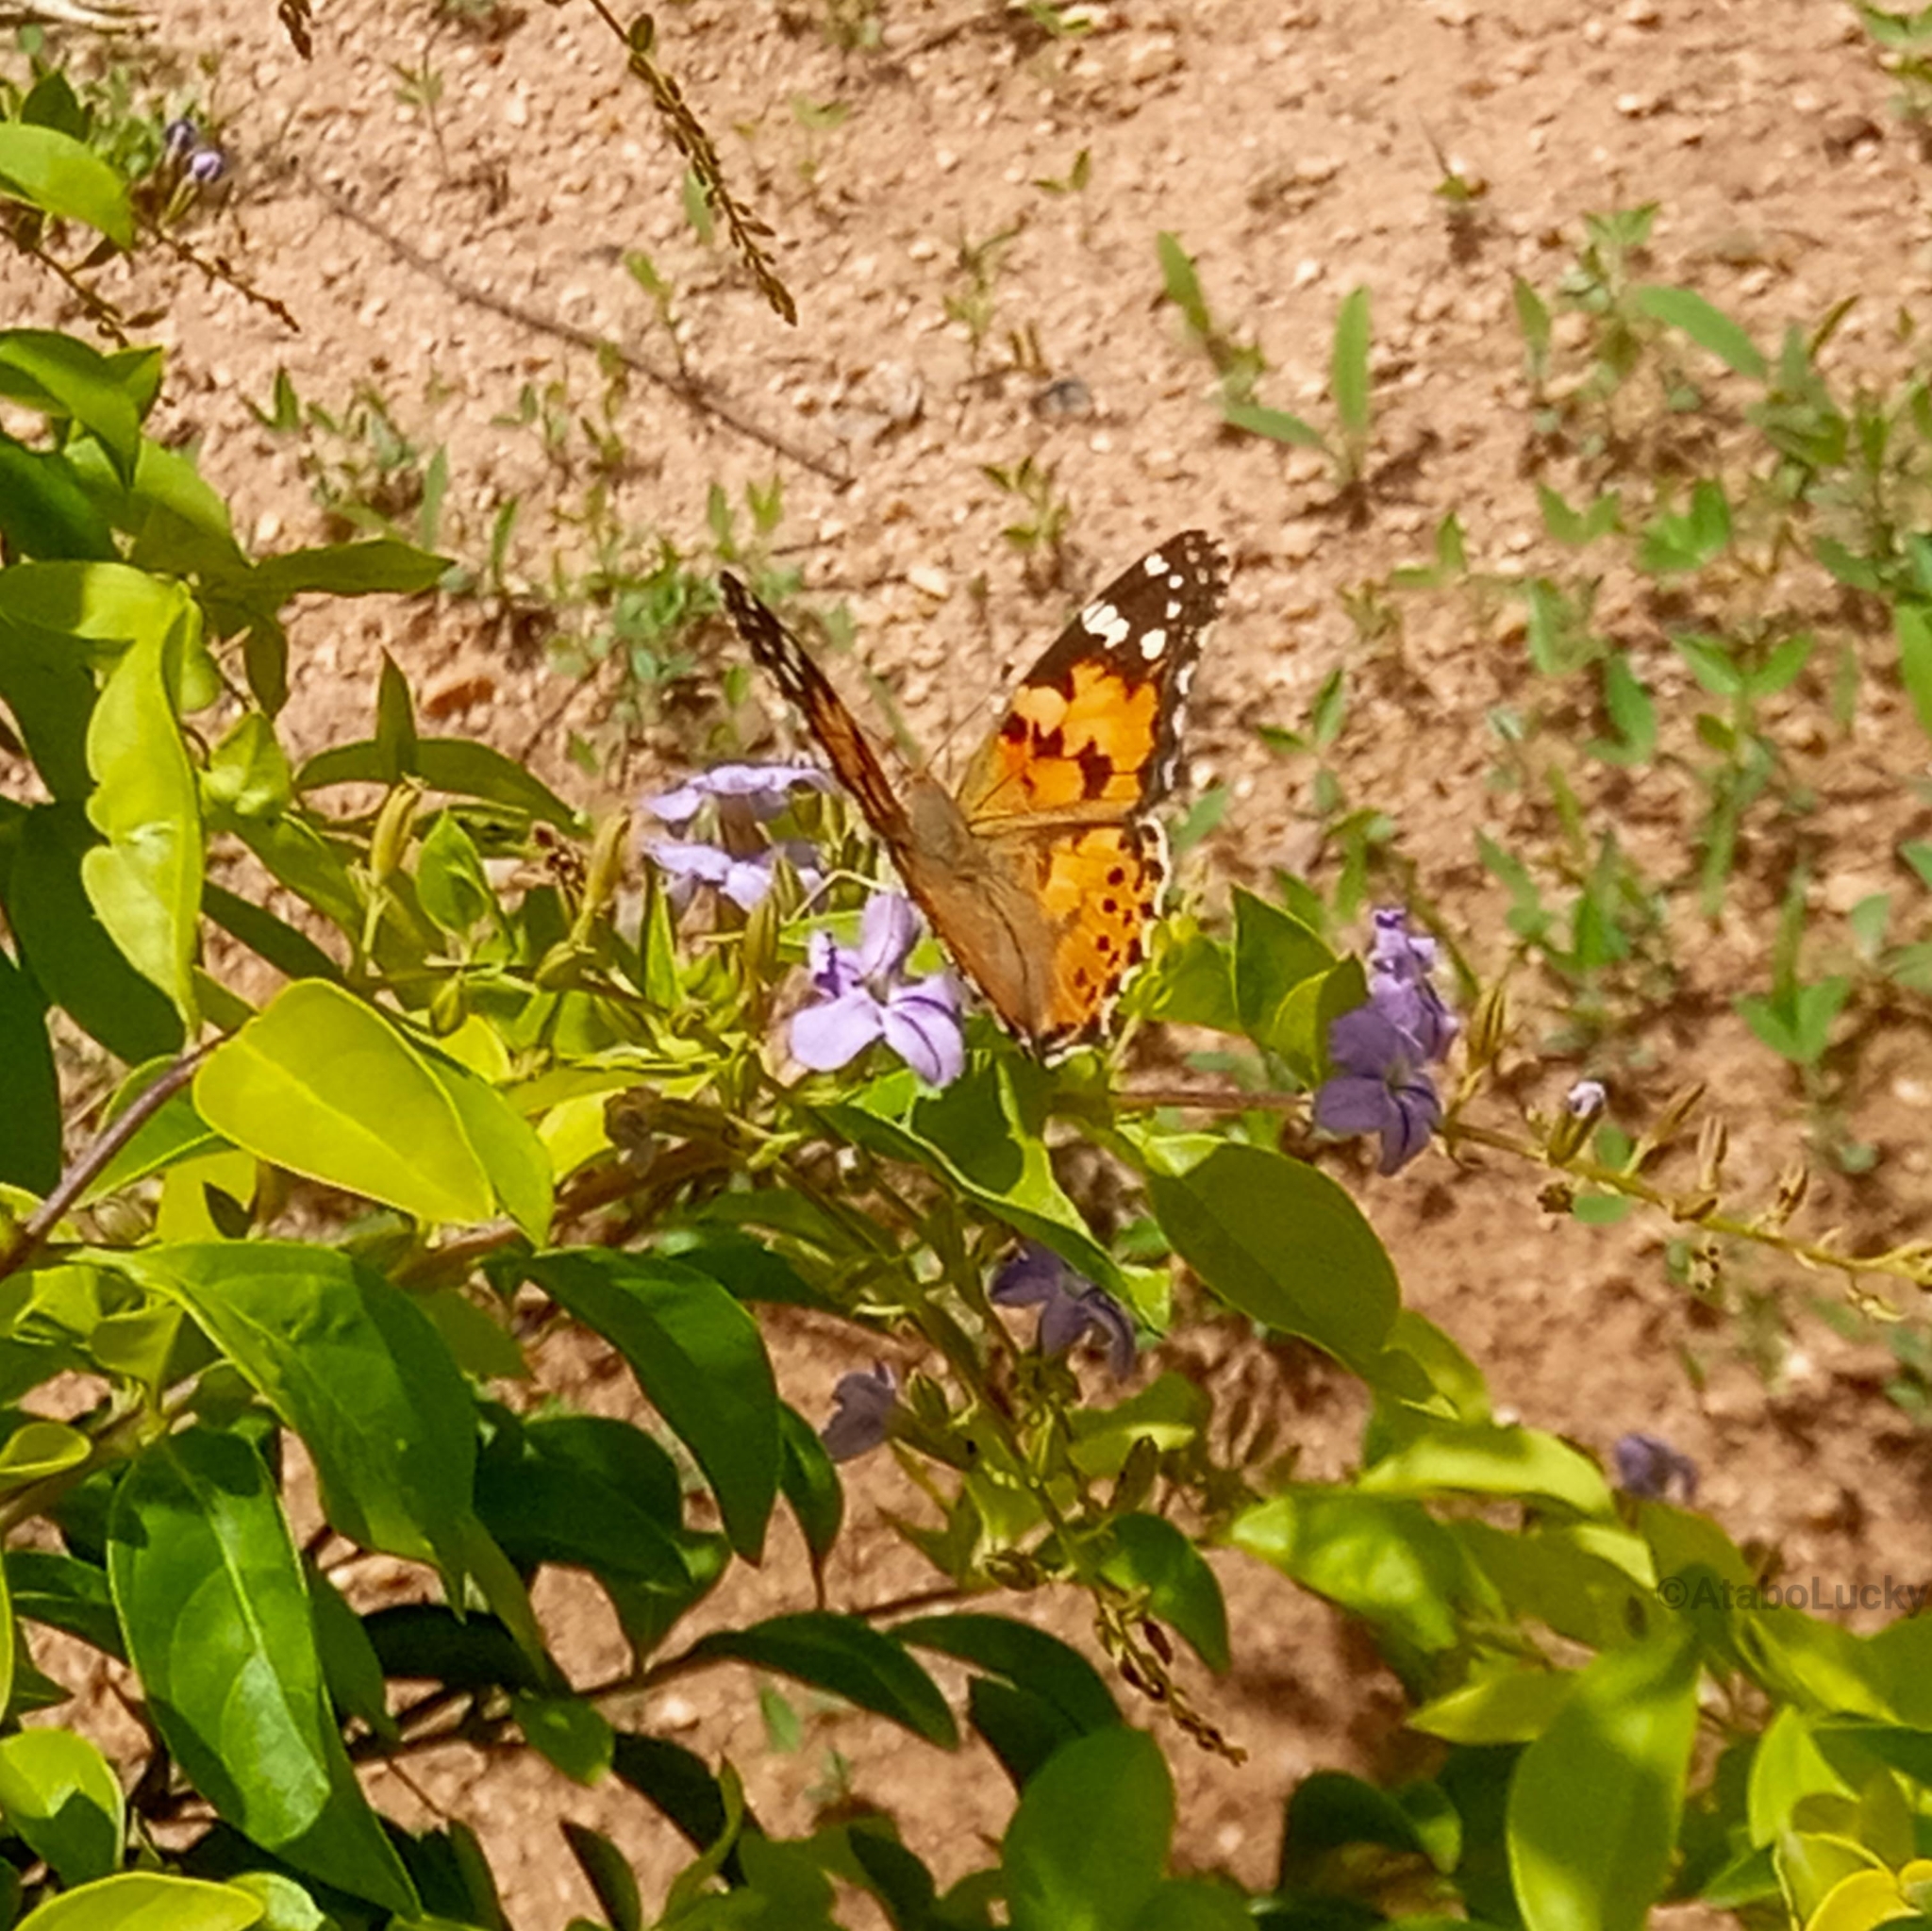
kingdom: Animalia
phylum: Arthropoda
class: Insecta
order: Lepidoptera
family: Nymphalidae
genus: Vanessa
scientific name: Vanessa cardui
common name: Painted lady
